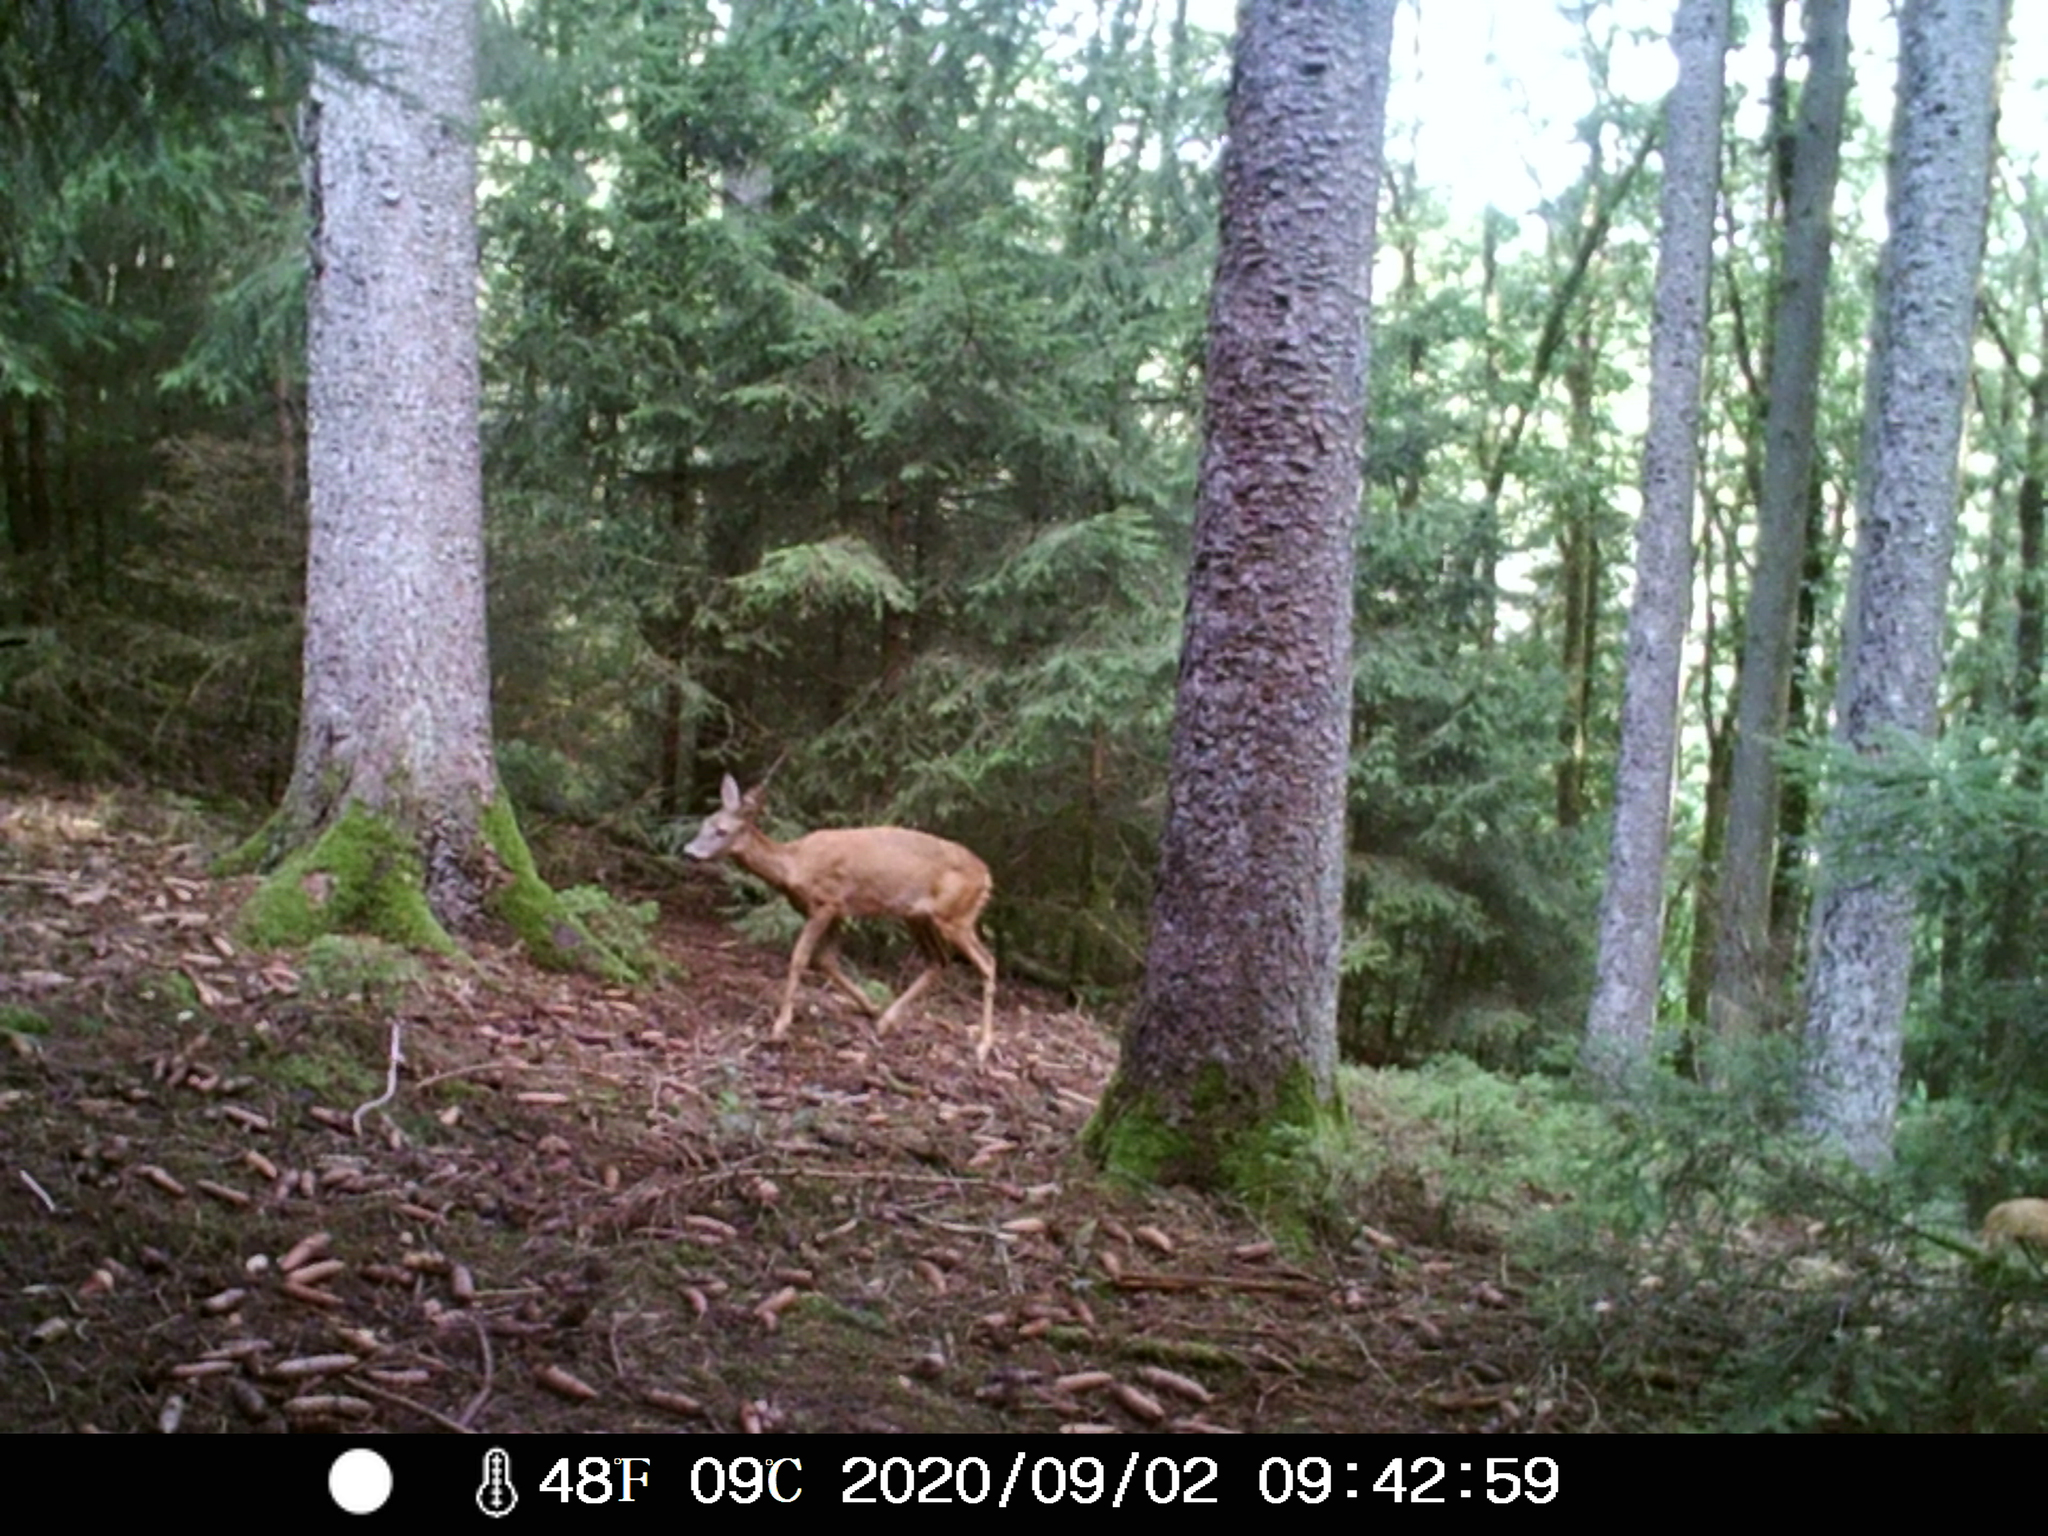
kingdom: Animalia
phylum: Chordata
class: Mammalia
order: Artiodactyla
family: Cervidae
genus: Capreolus
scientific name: Capreolus capreolus
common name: Western roe deer
